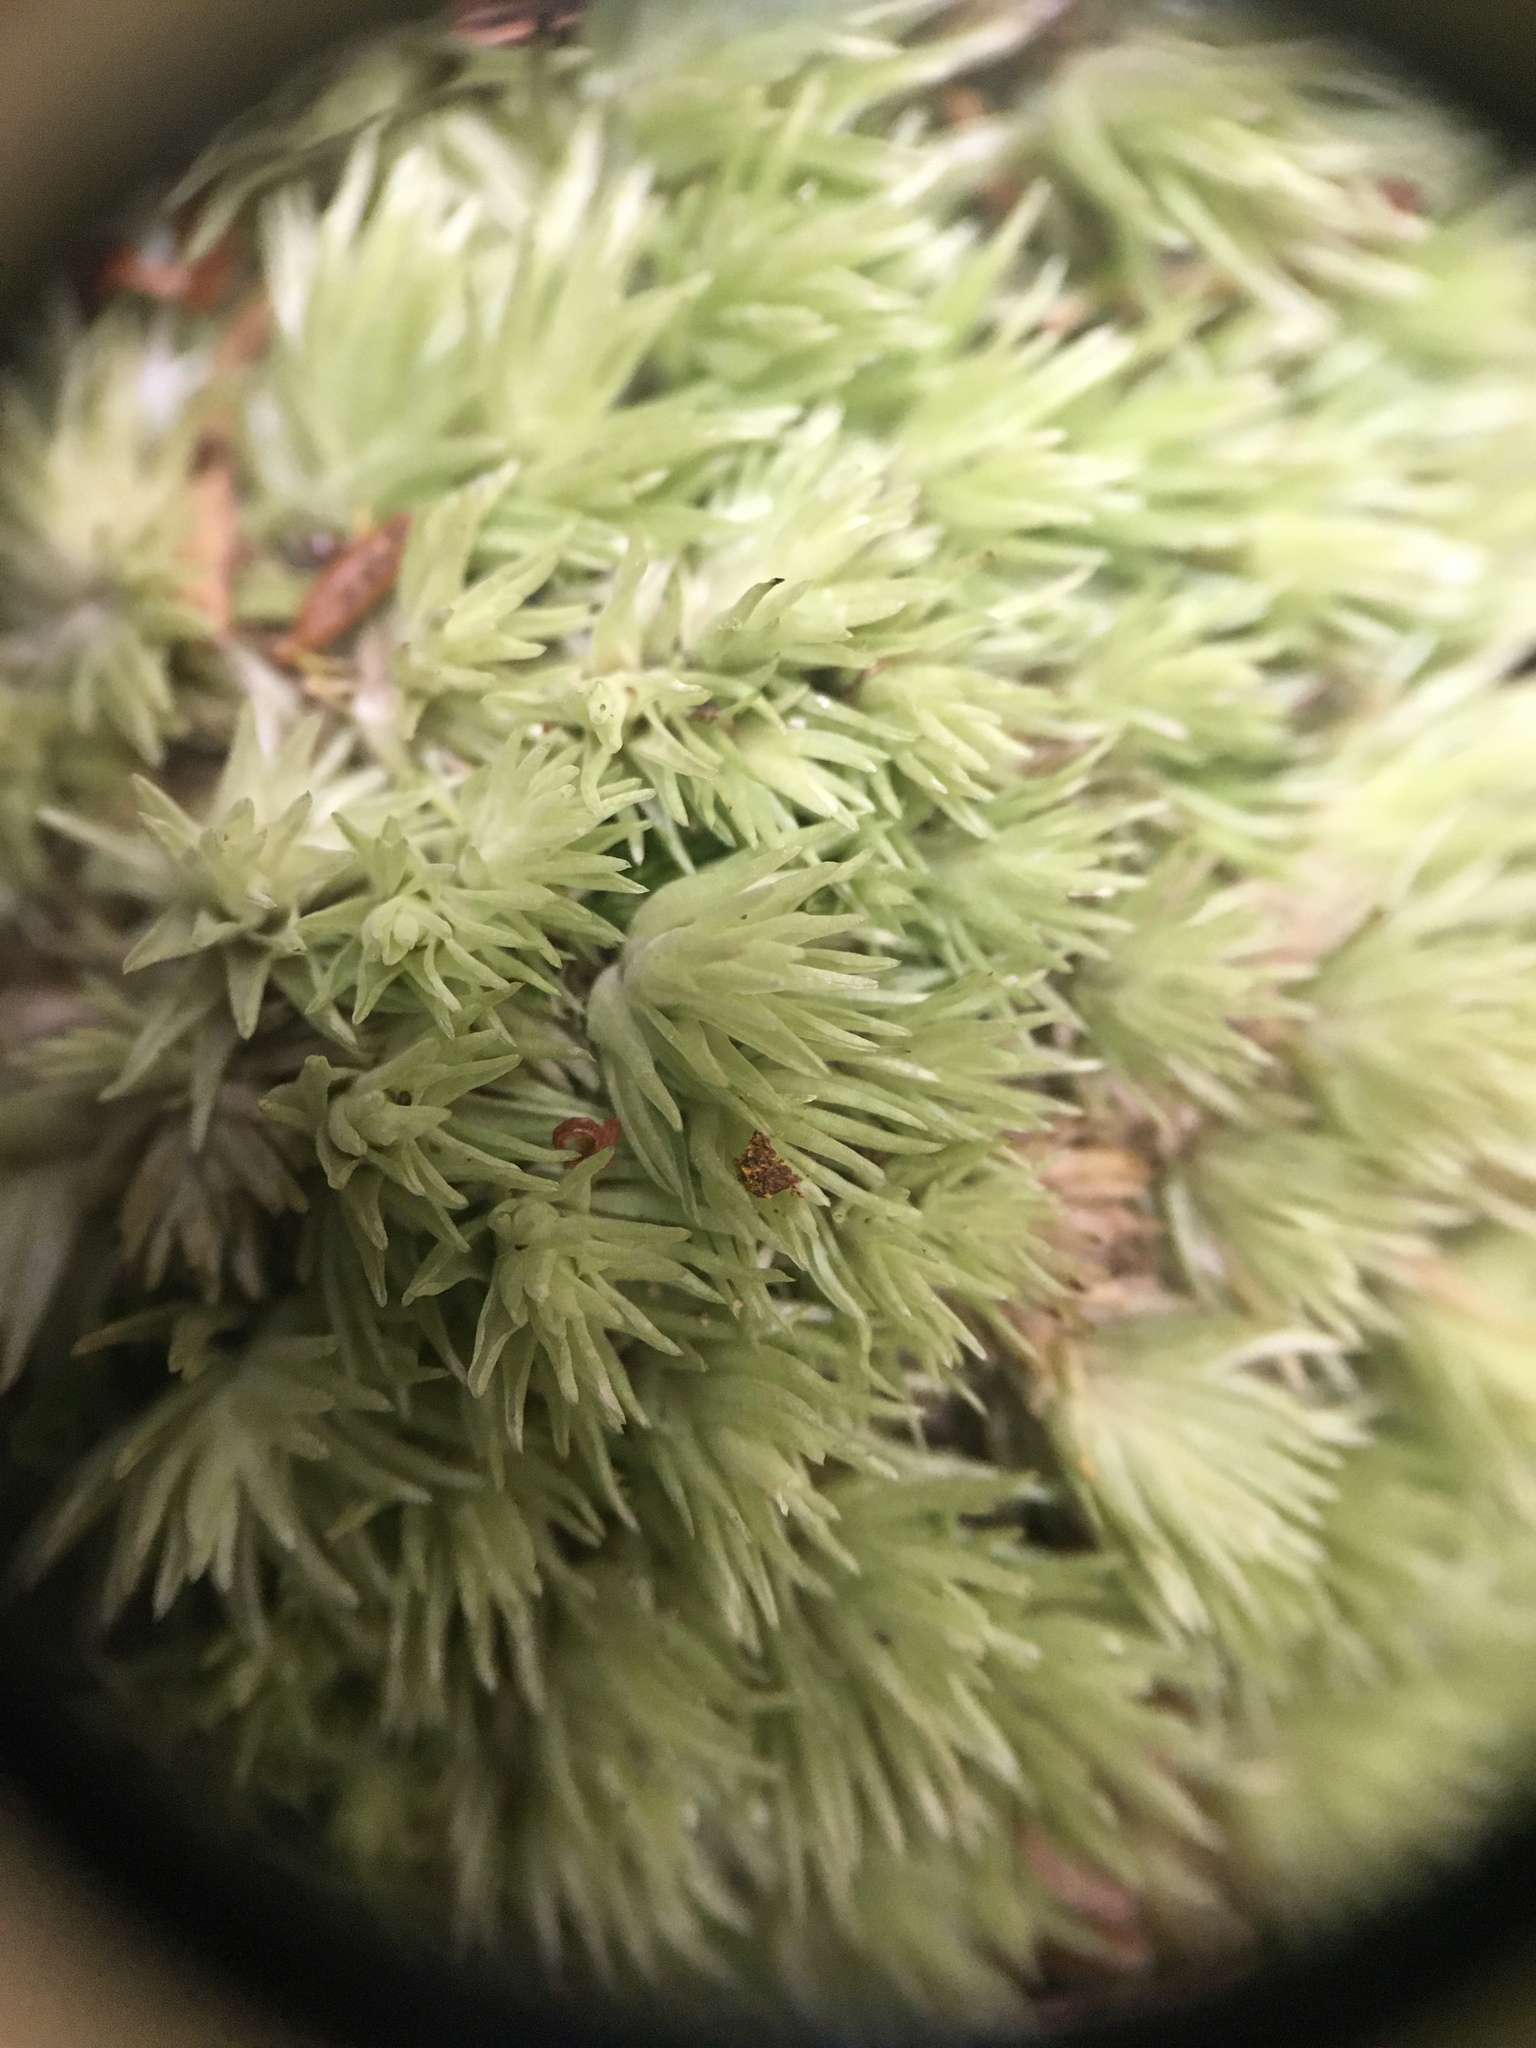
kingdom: Plantae
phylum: Bryophyta
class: Bryopsida
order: Dicranales
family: Leucobryaceae
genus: Leucobryum
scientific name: Leucobryum glaucum
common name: Large white-moss
